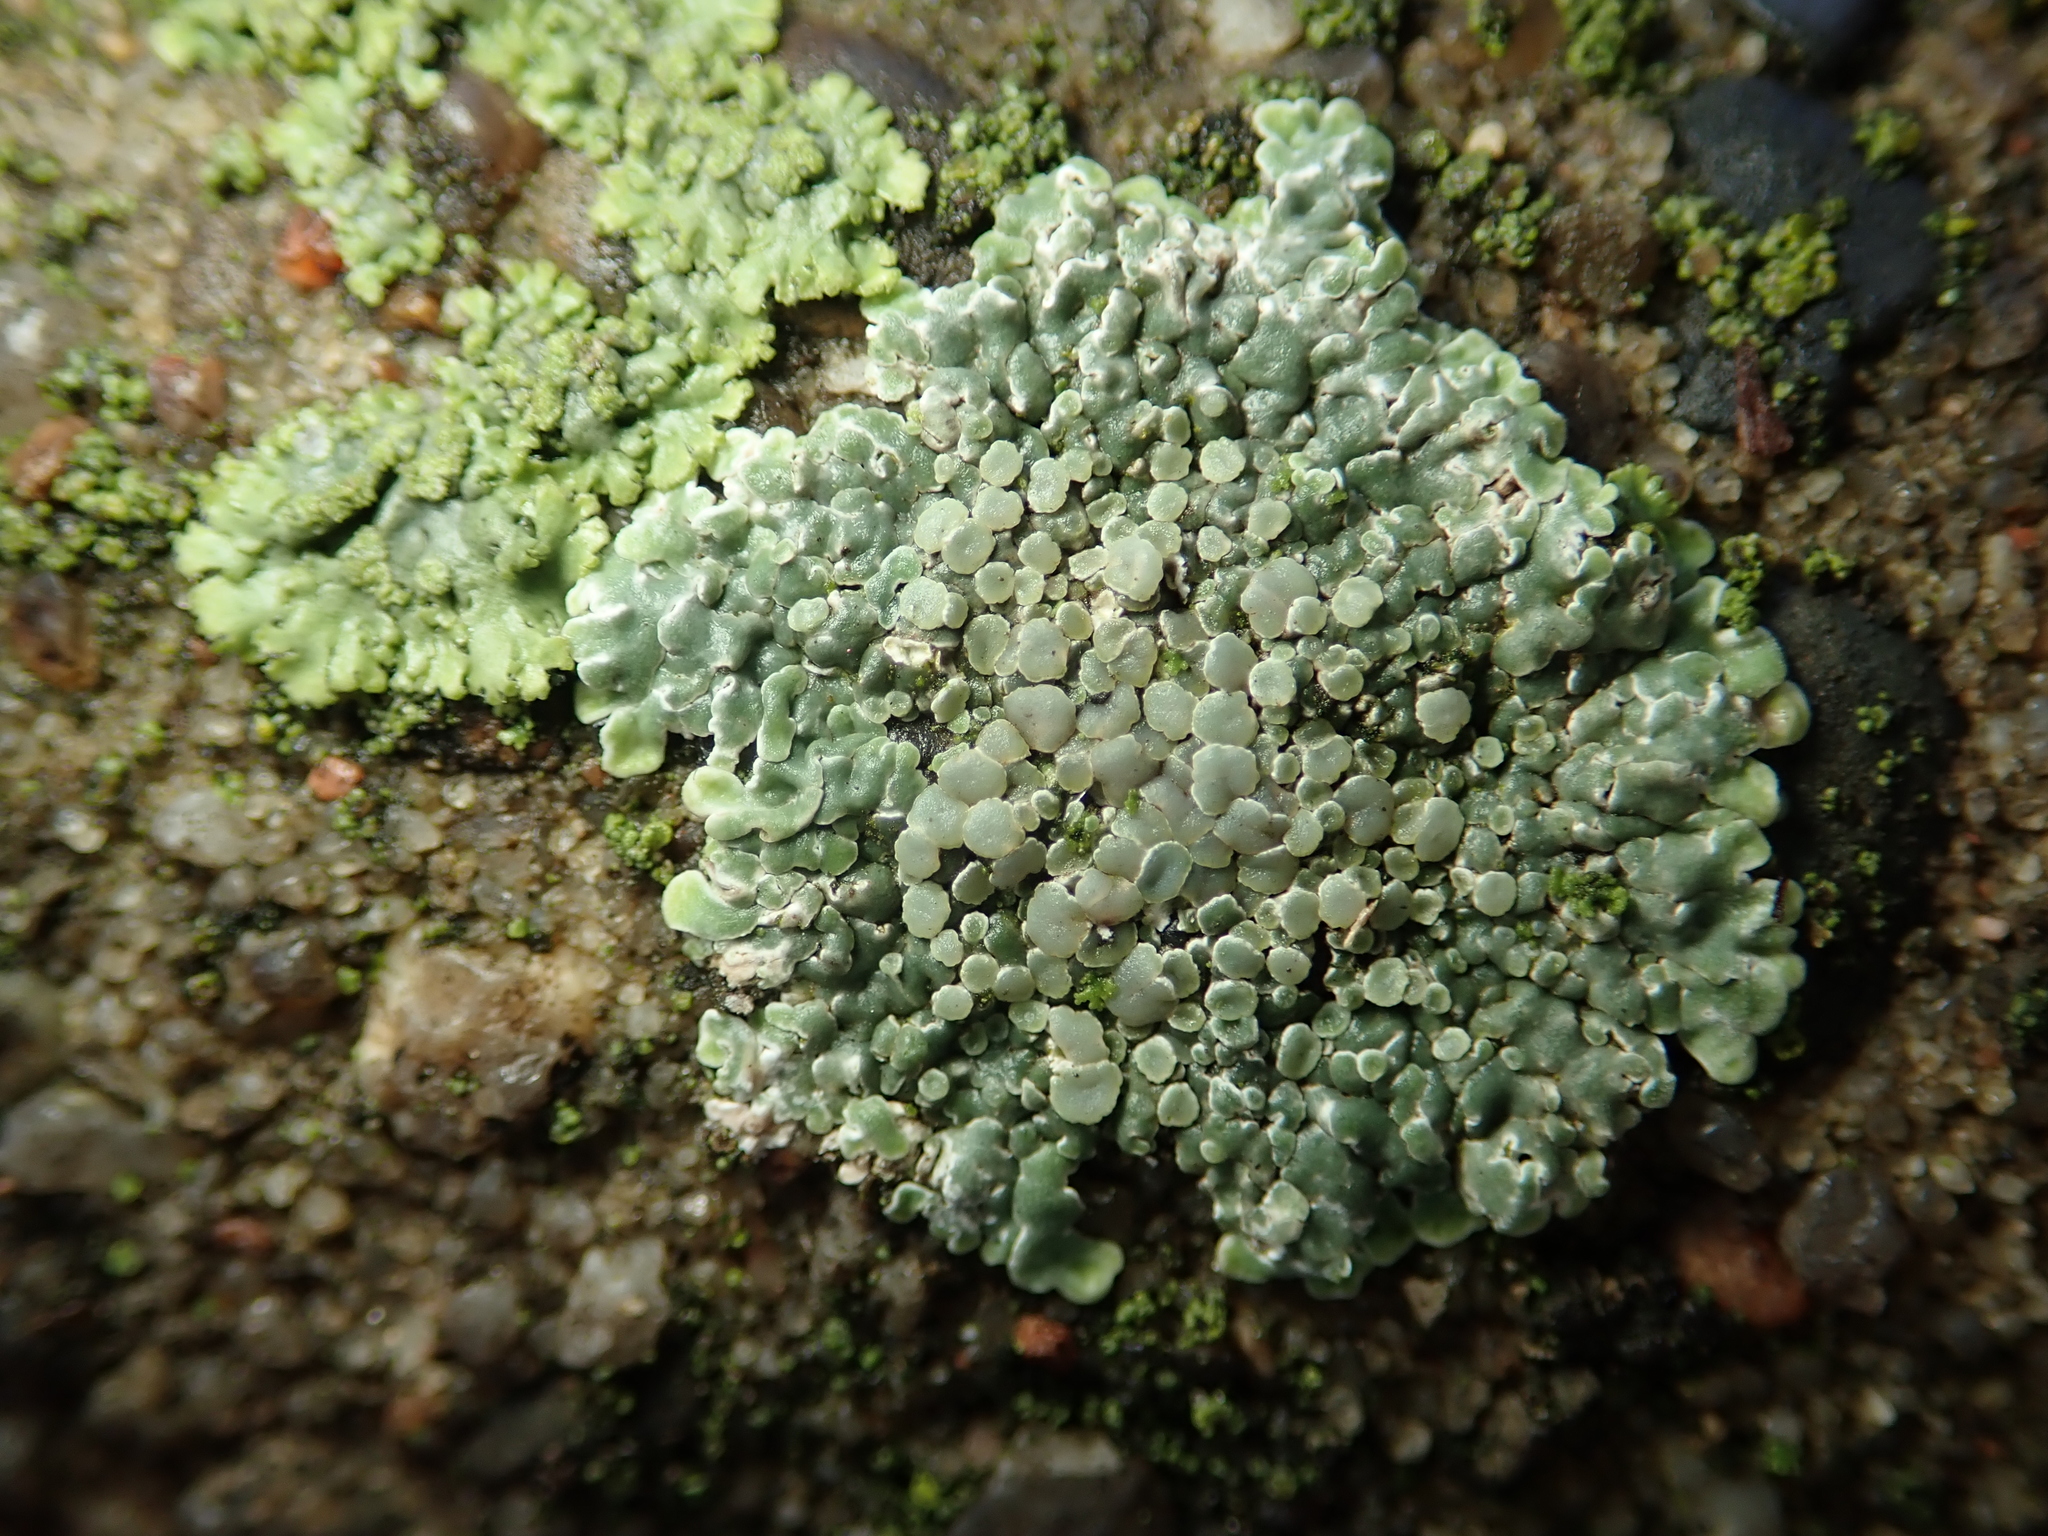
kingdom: Fungi
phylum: Ascomycota
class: Lecanoromycetes
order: Lecanorales
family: Lecanoraceae
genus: Protoparmeliopsis
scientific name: Protoparmeliopsis muralis
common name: Stonewall rim lichen
